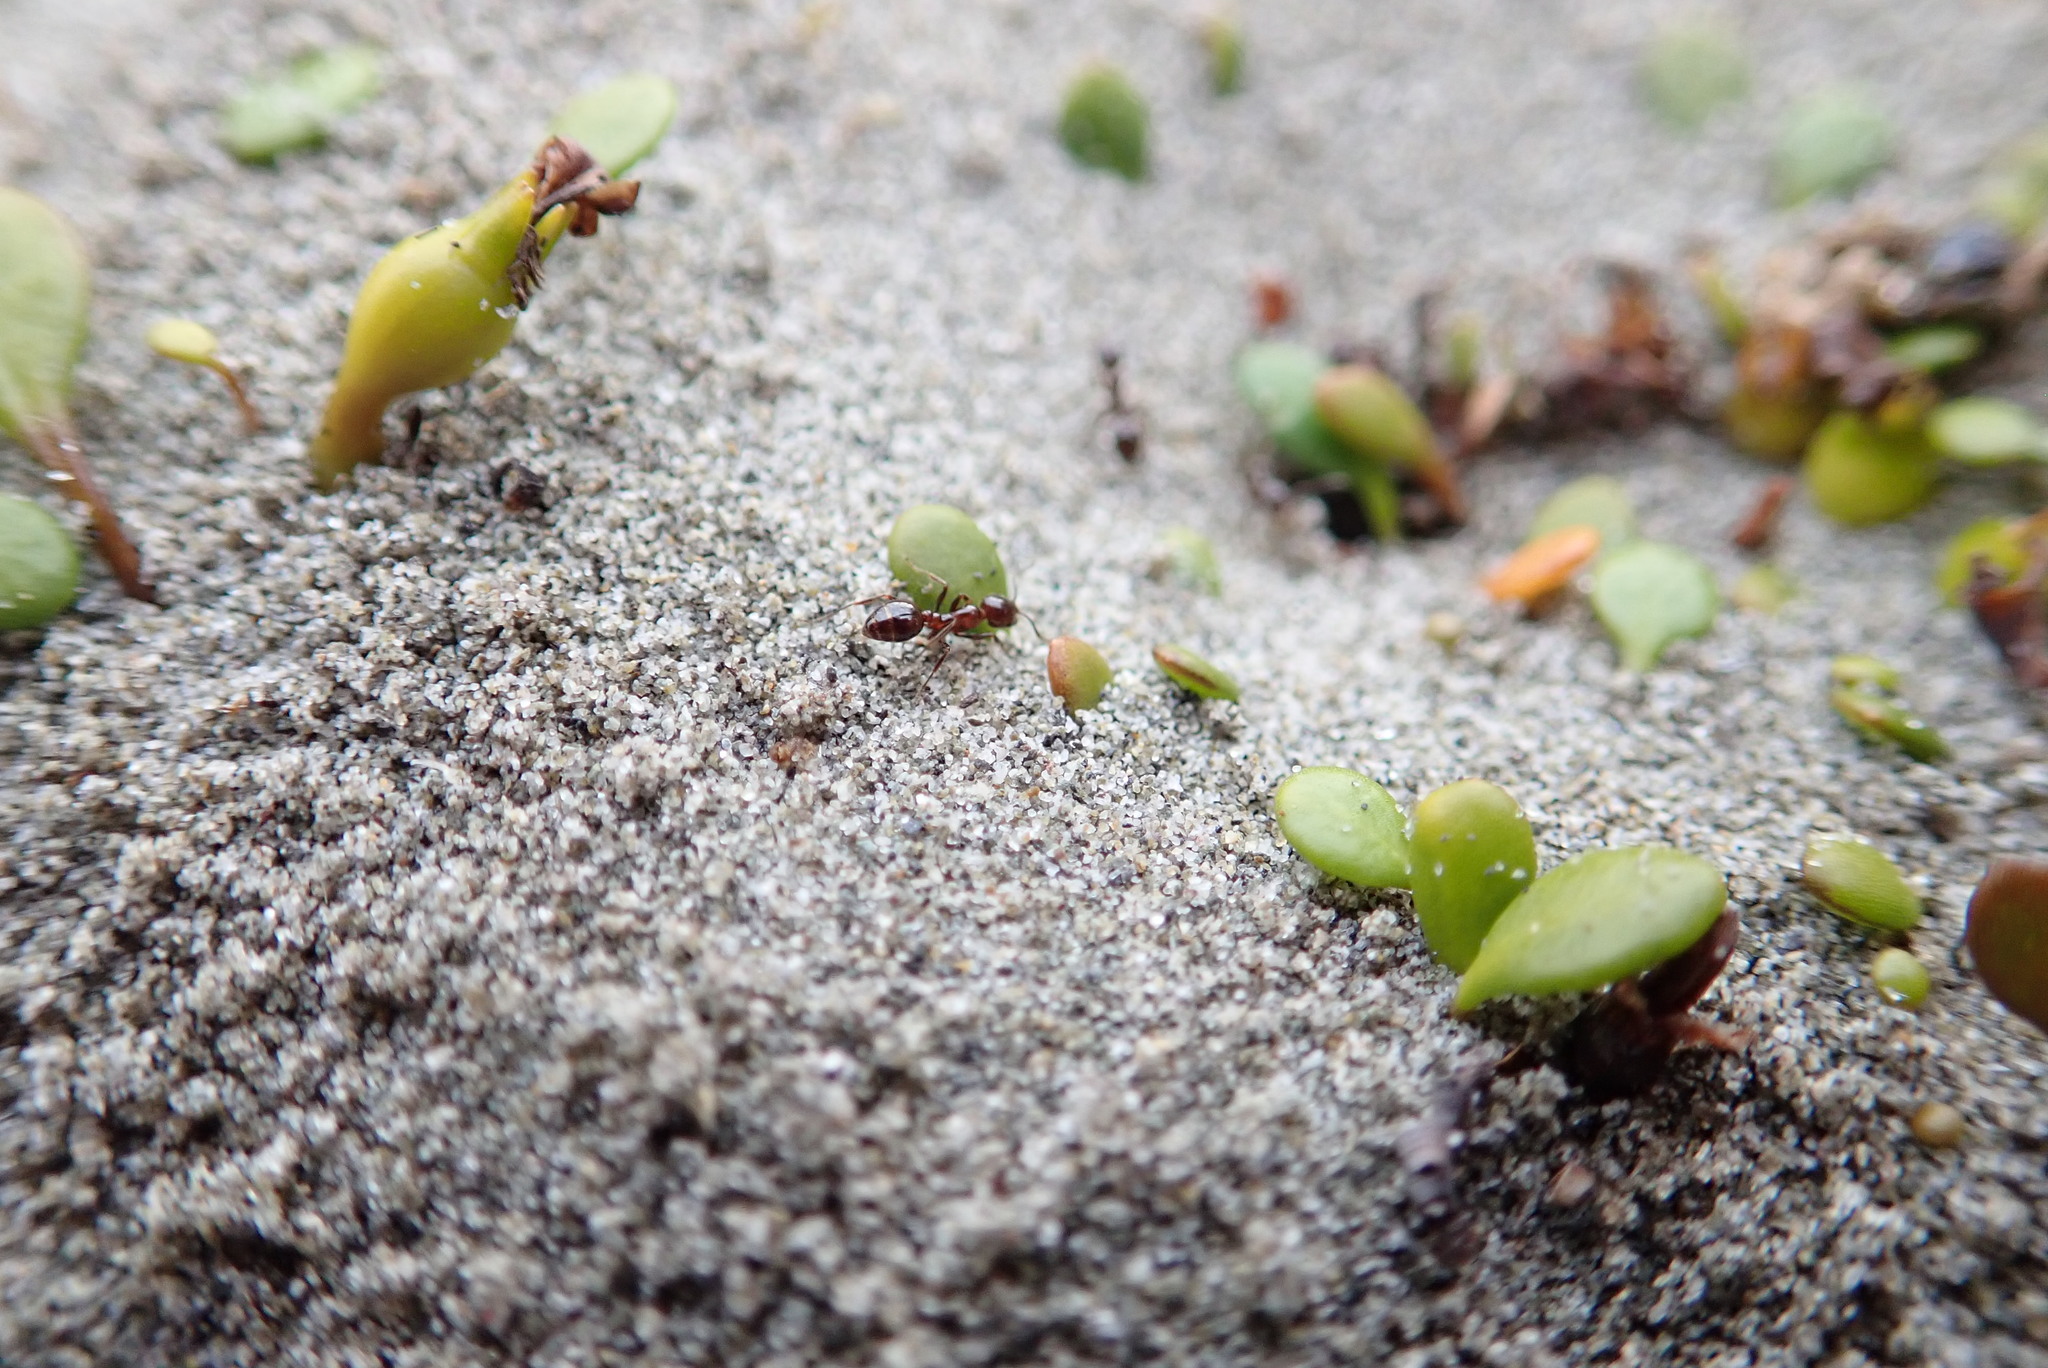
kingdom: Animalia
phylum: Arthropoda
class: Insecta
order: Hymenoptera
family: Formicidae
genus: Huberia
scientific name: Huberia striata
